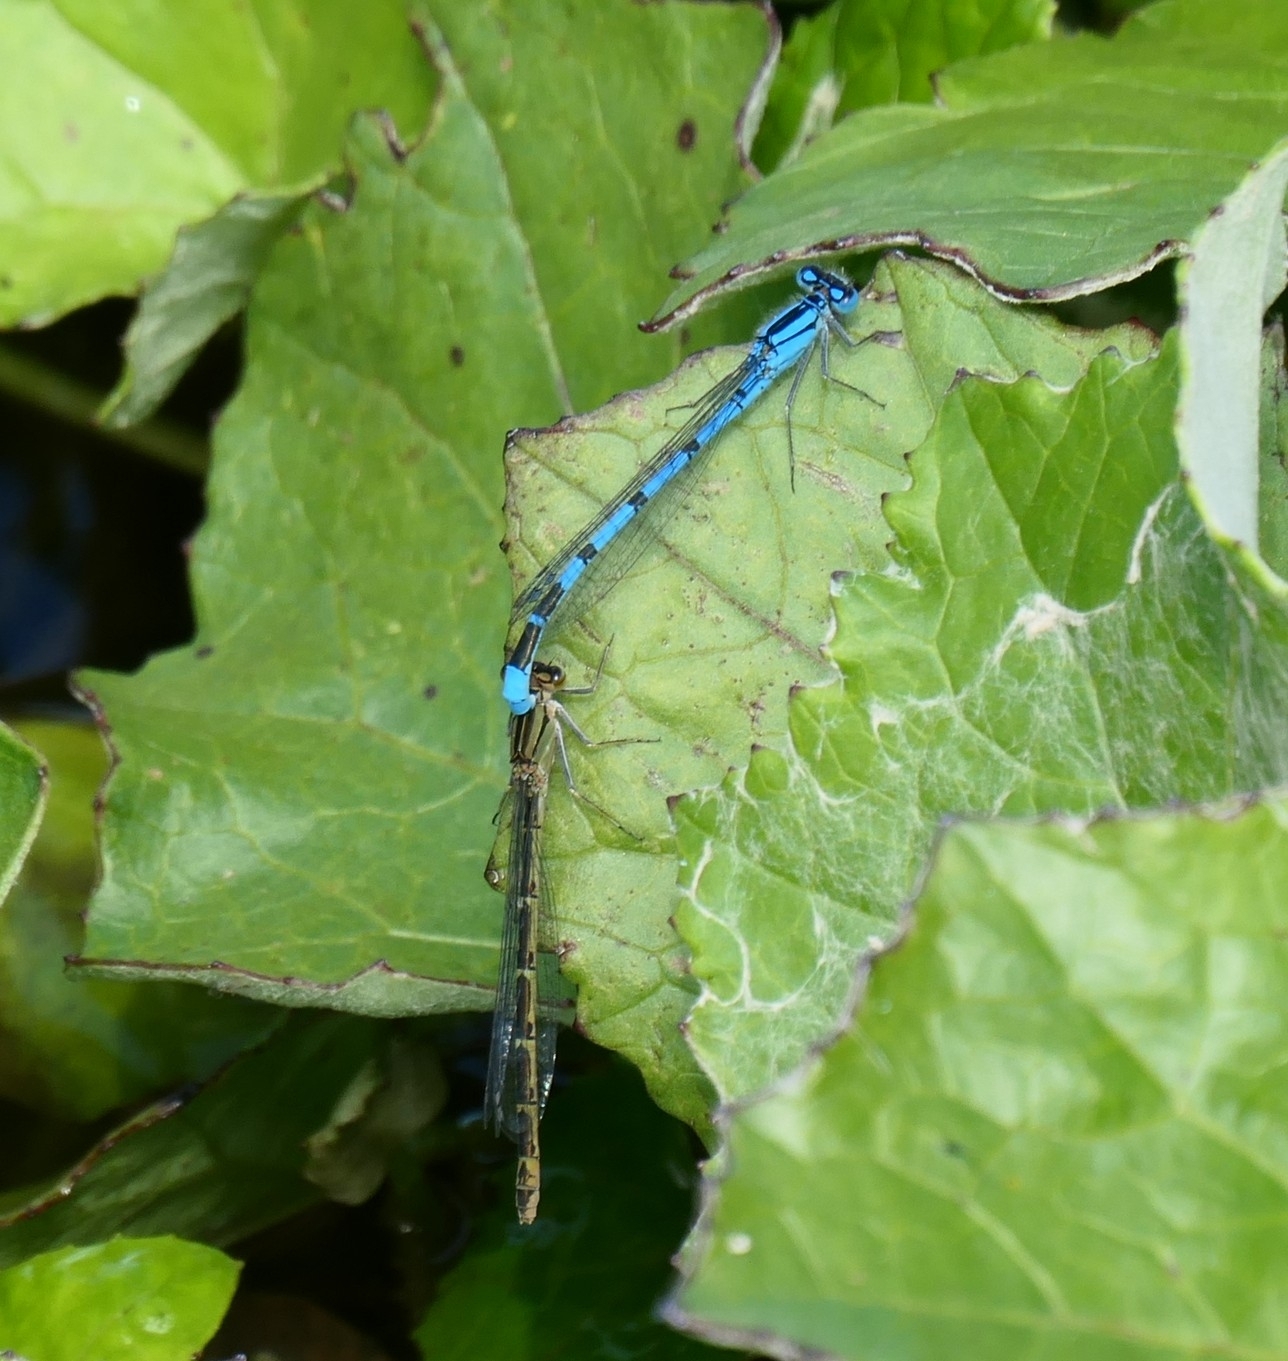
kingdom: Animalia
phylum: Arthropoda
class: Insecta
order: Odonata
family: Coenagrionidae
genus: Enallagma
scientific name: Enallagma cyathigerum
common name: Common blue damselfly
